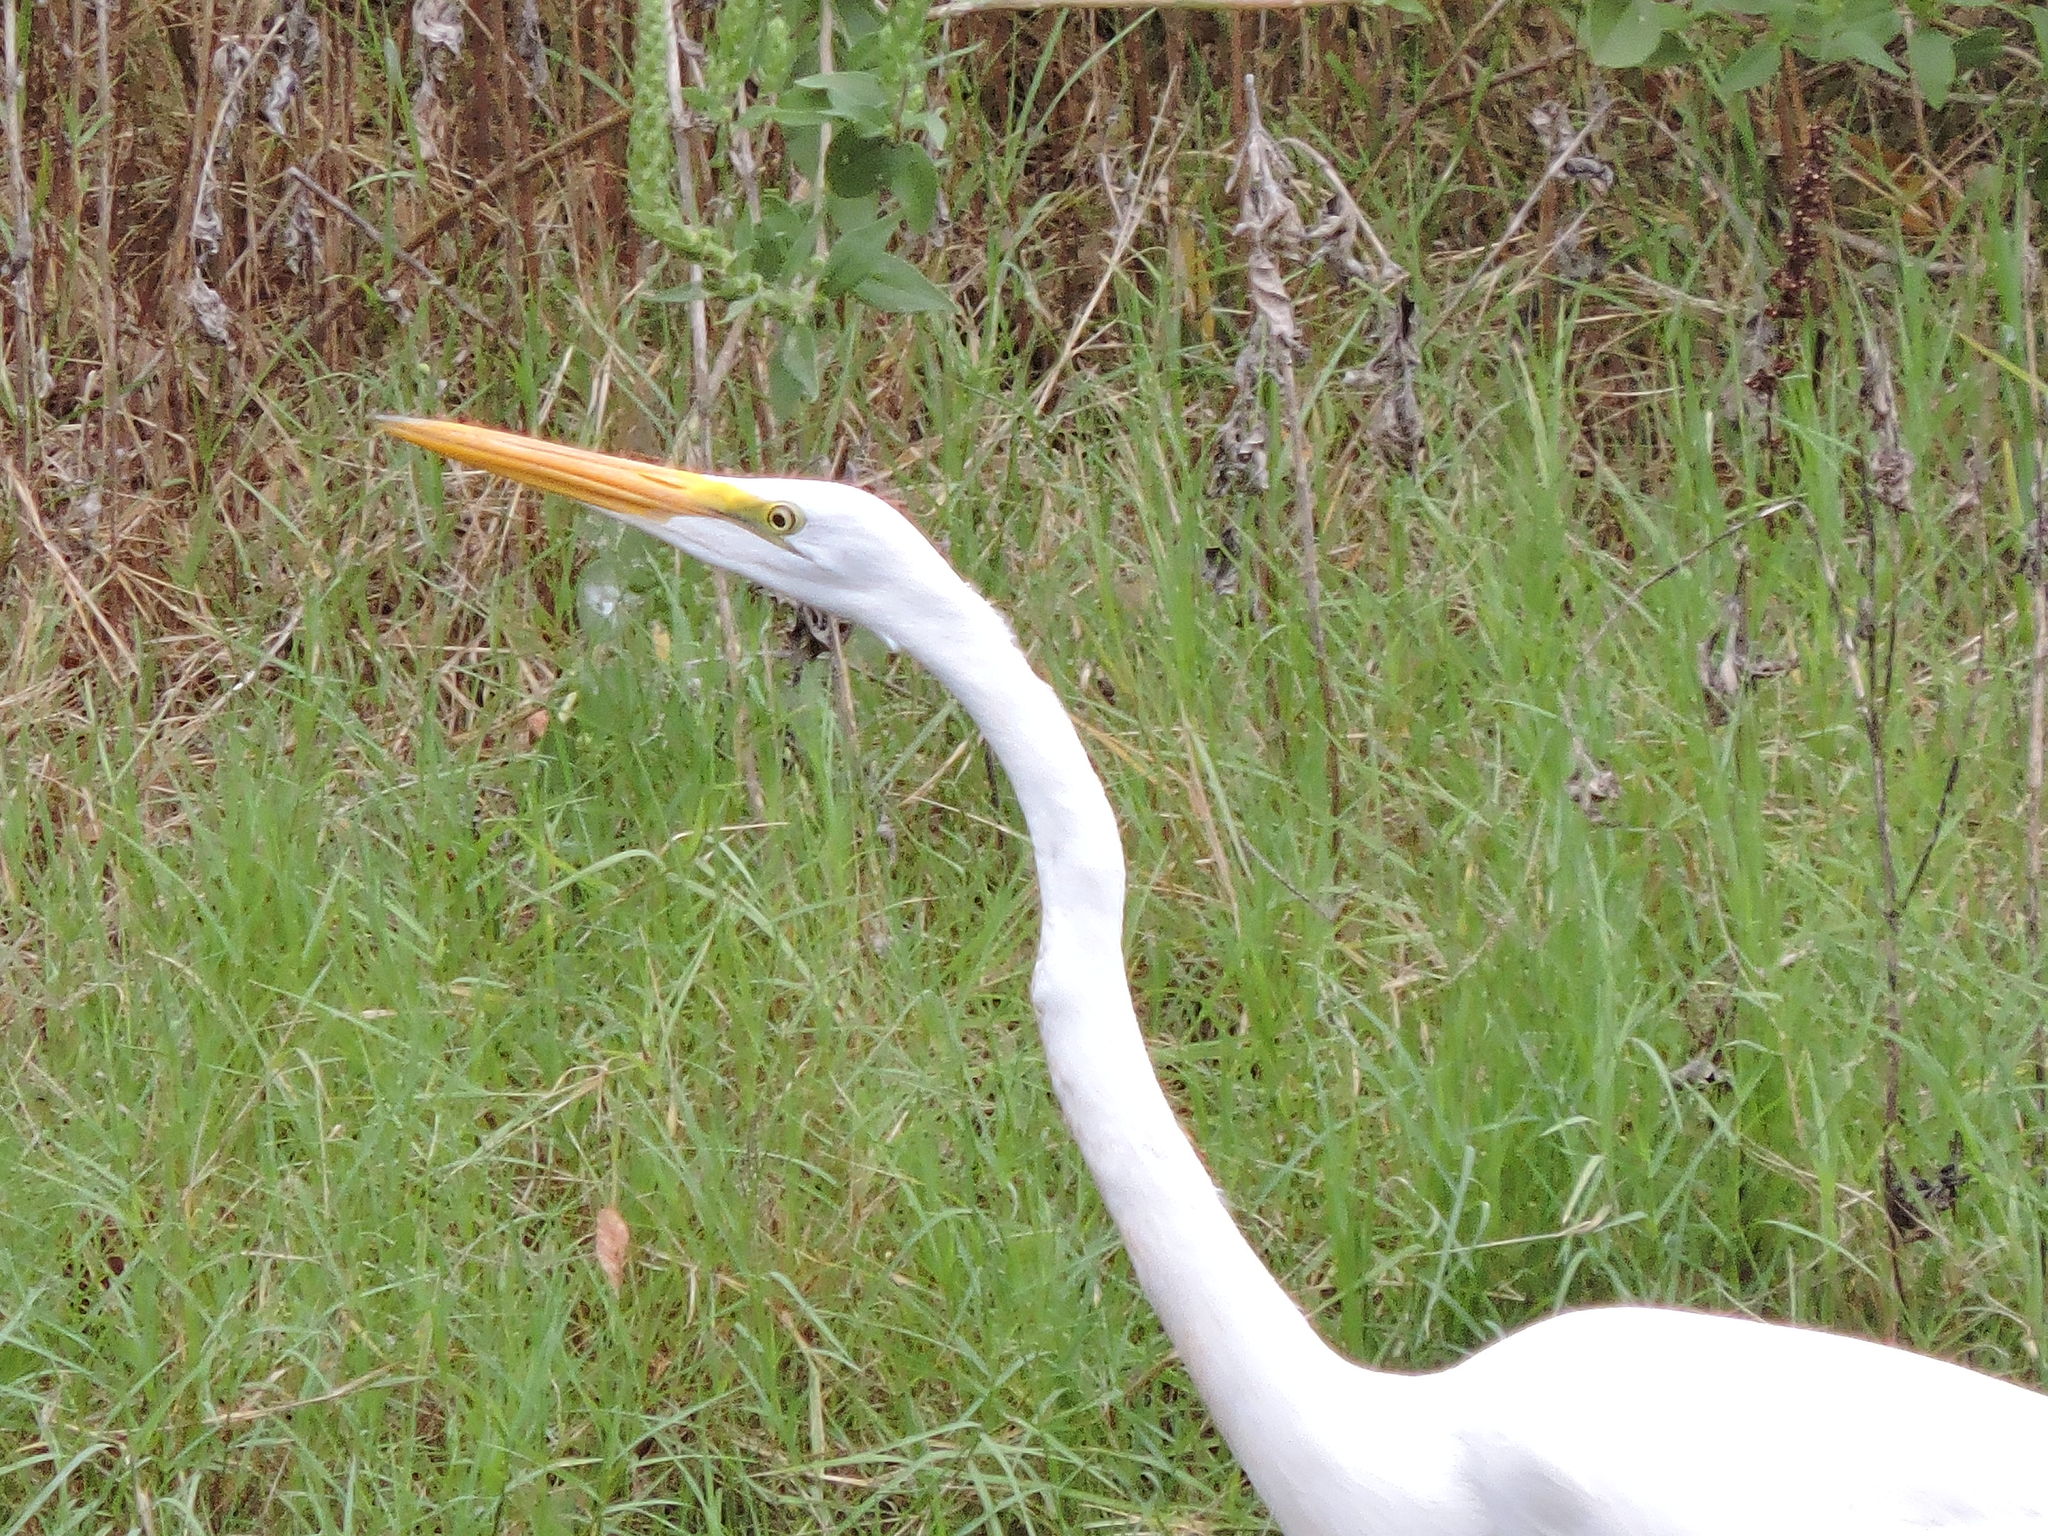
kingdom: Animalia
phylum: Chordata
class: Aves
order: Pelecaniformes
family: Ardeidae
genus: Ardea
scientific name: Ardea alba
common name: Great egret
